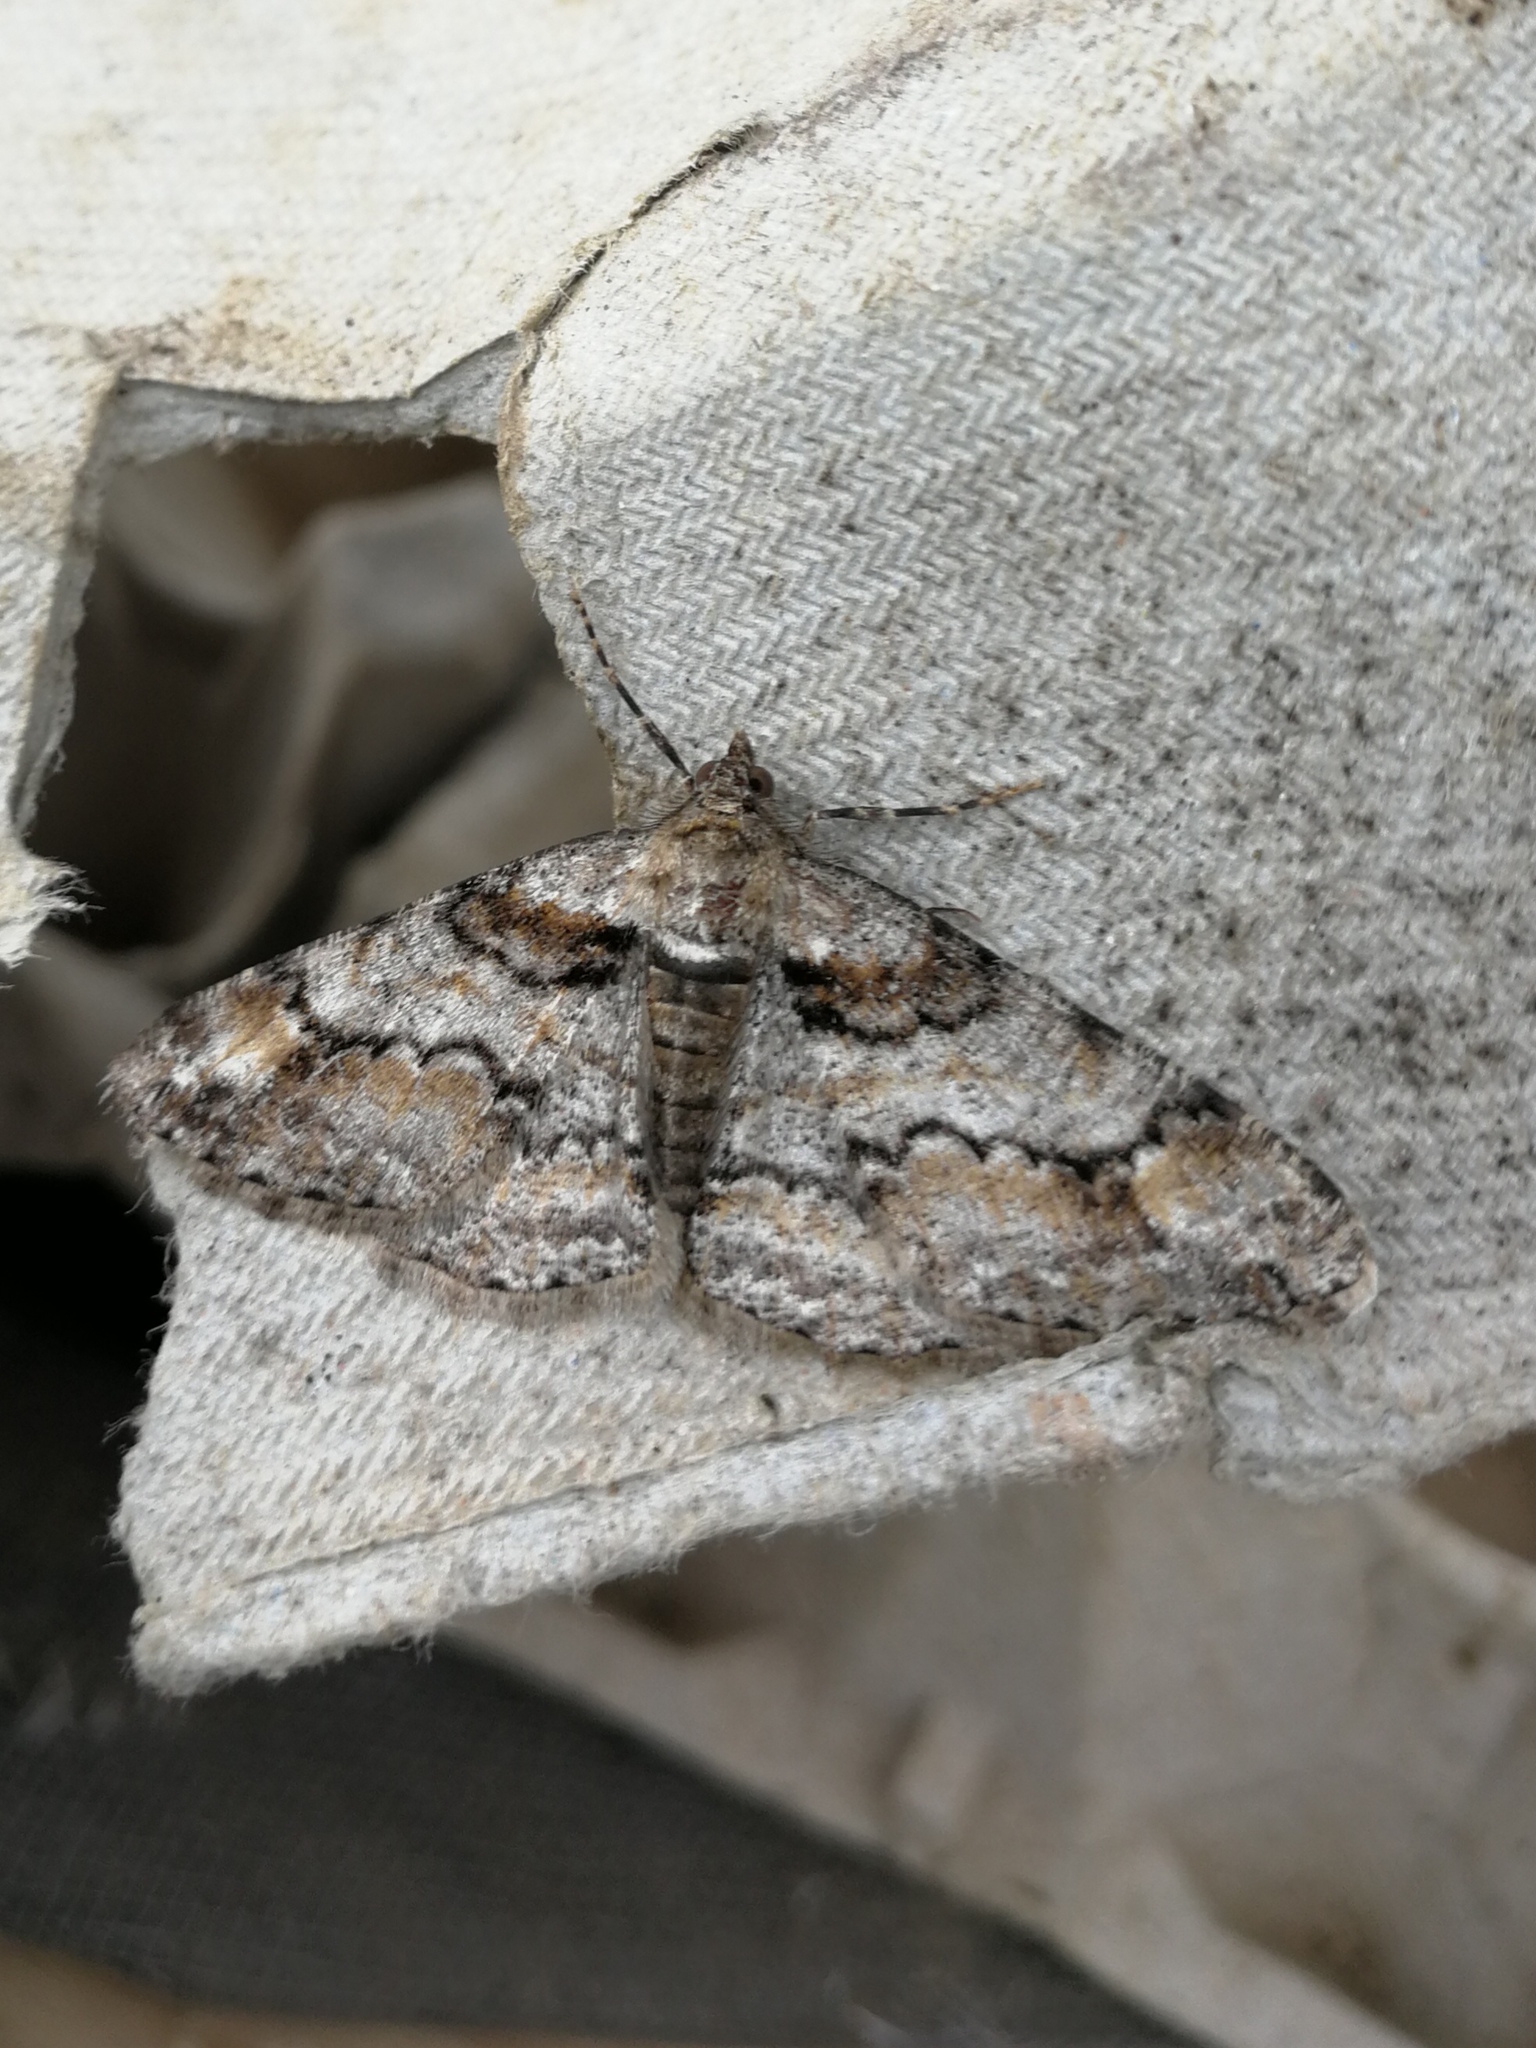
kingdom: Animalia
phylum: Arthropoda
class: Insecta
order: Lepidoptera
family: Geometridae
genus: Cleora
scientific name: Cleora cinctaria
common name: Ringed carpet
